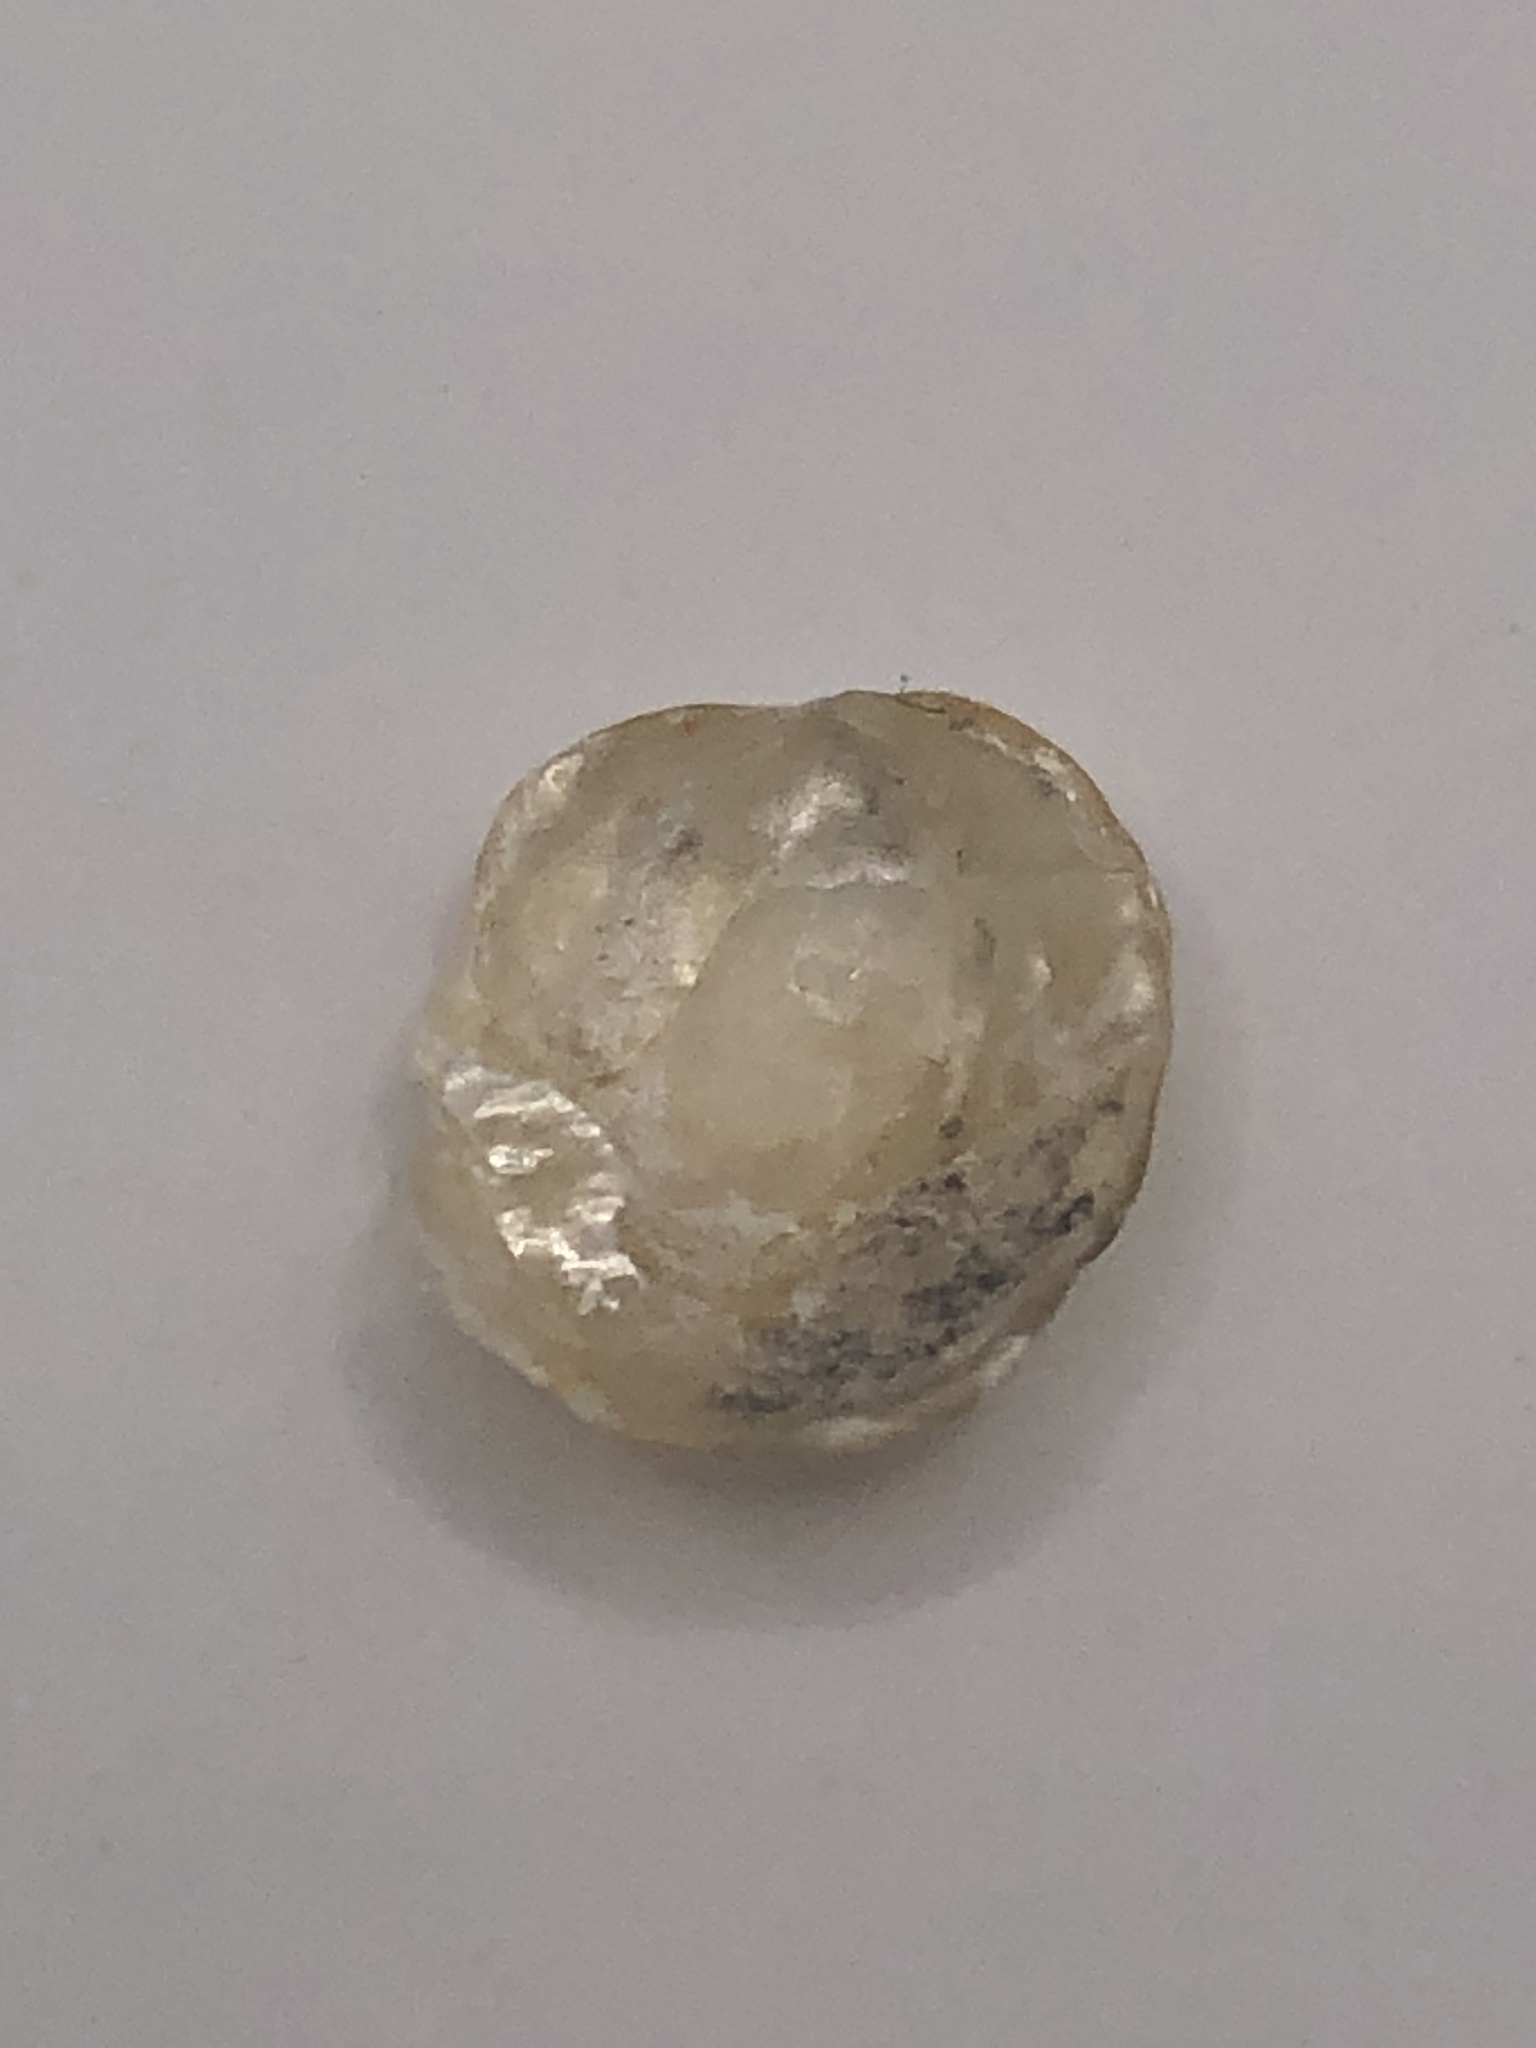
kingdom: Animalia
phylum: Mollusca
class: Bivalvia
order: Pectinida
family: Anomiidae
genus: Anomia
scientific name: Anomia simplex
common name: Common jingle shell
